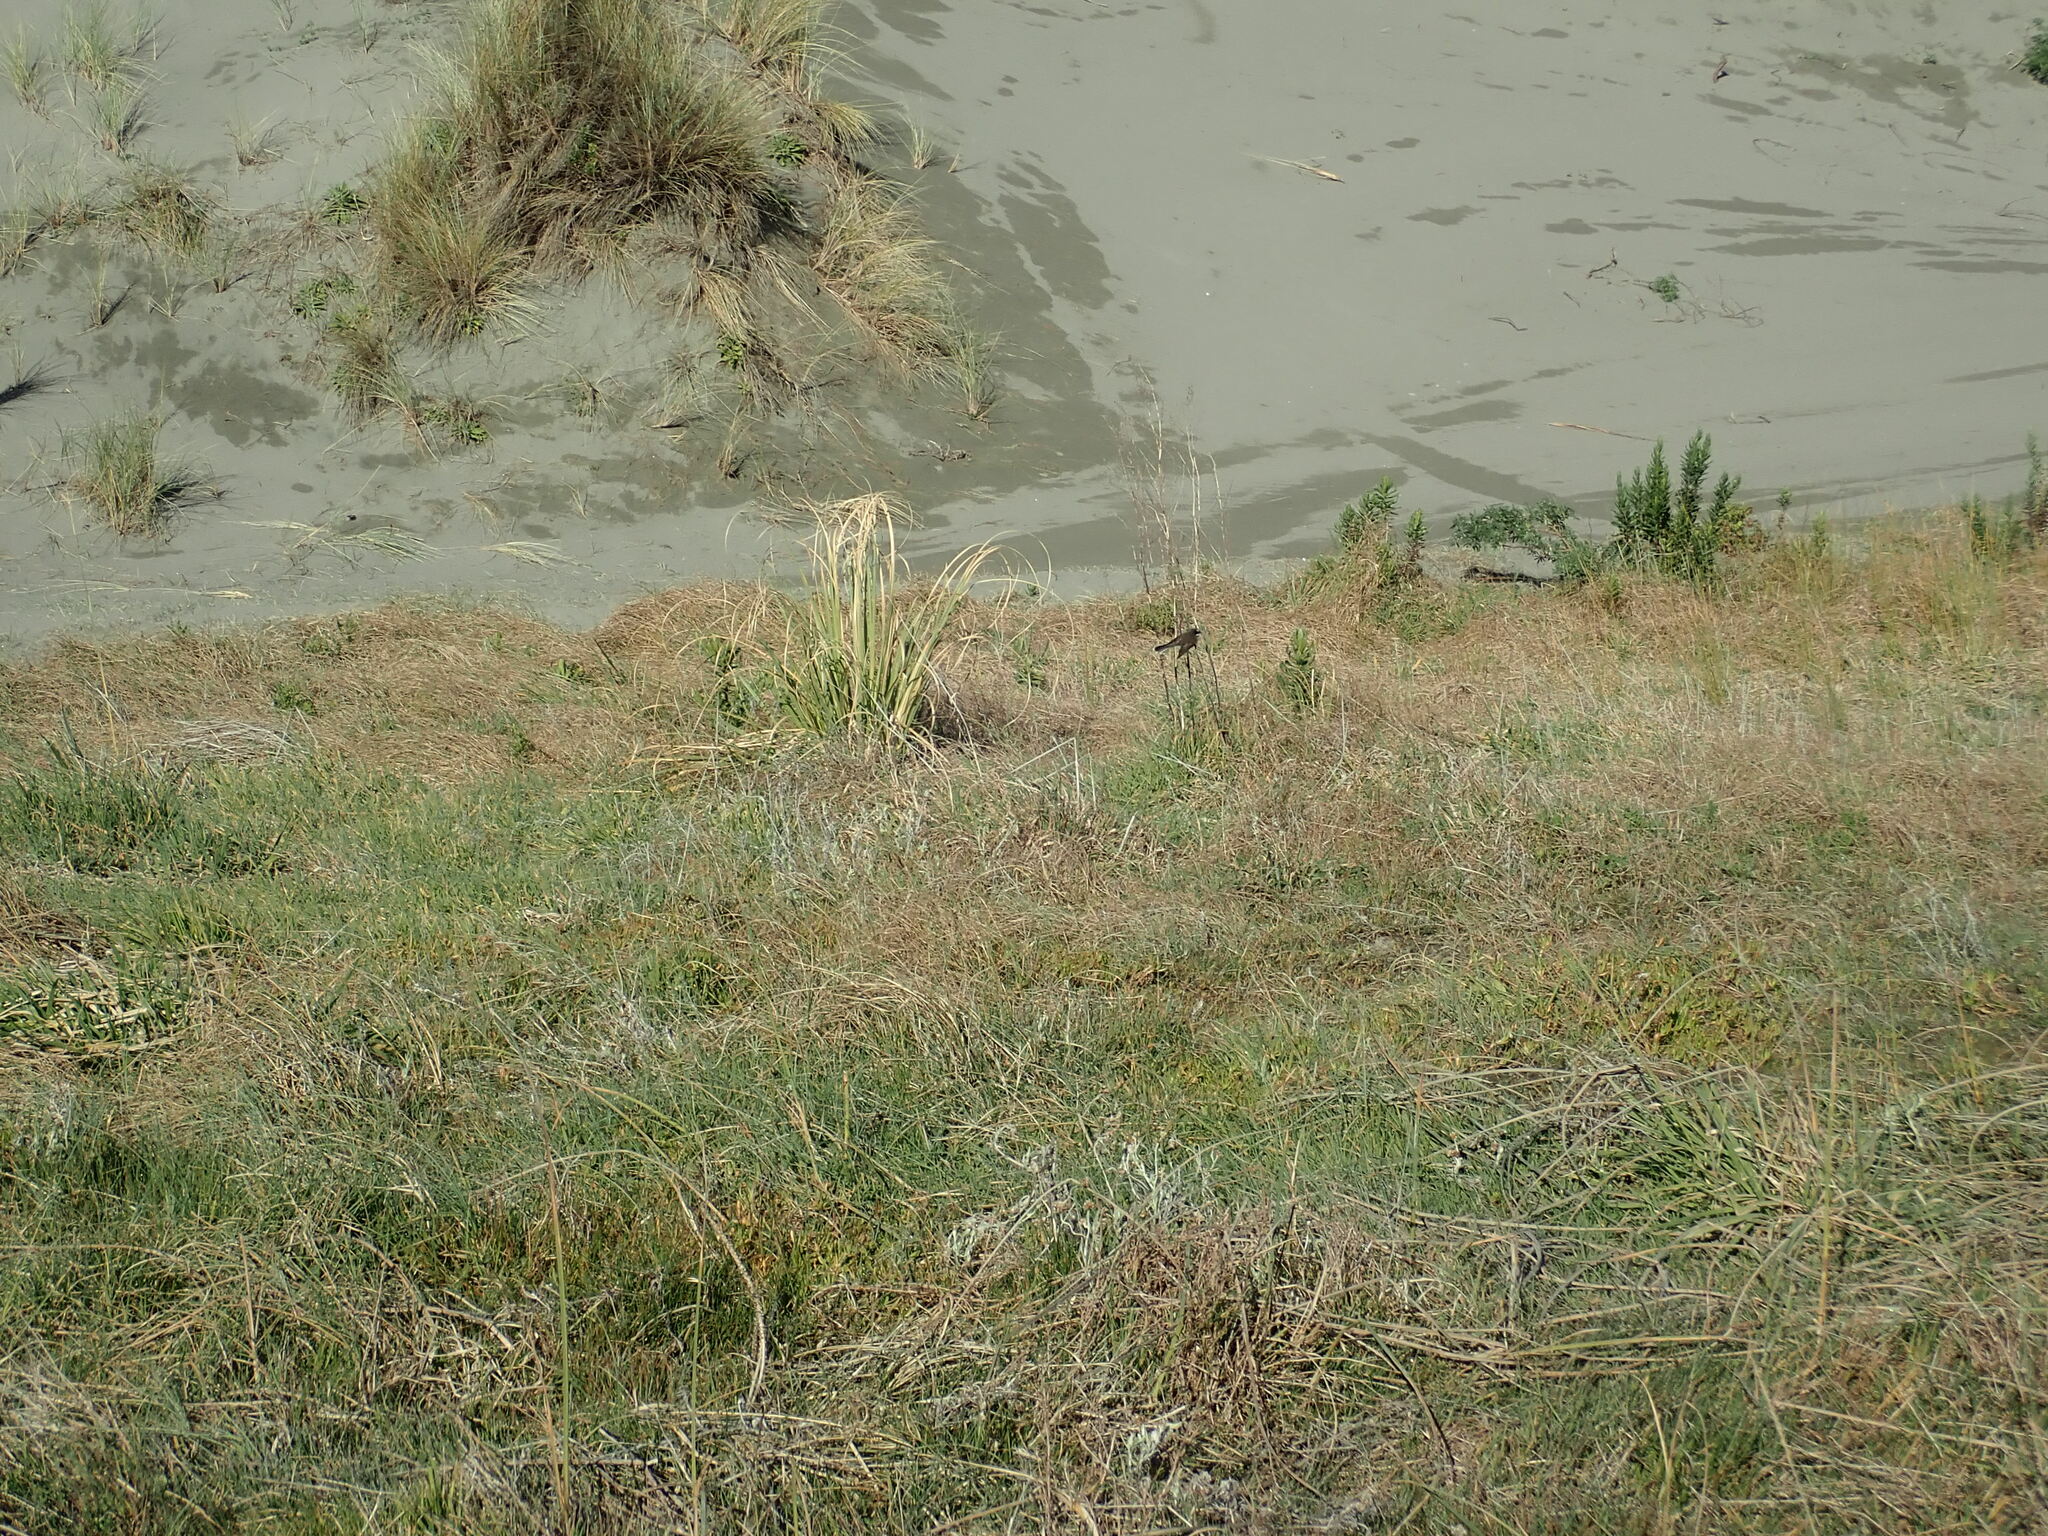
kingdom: Animalia
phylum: Chordata
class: Aves
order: Passeriformes
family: Rhipiduridae
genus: Rhipidura
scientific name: Rhipidura fuliginosa
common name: New zealand fantail
